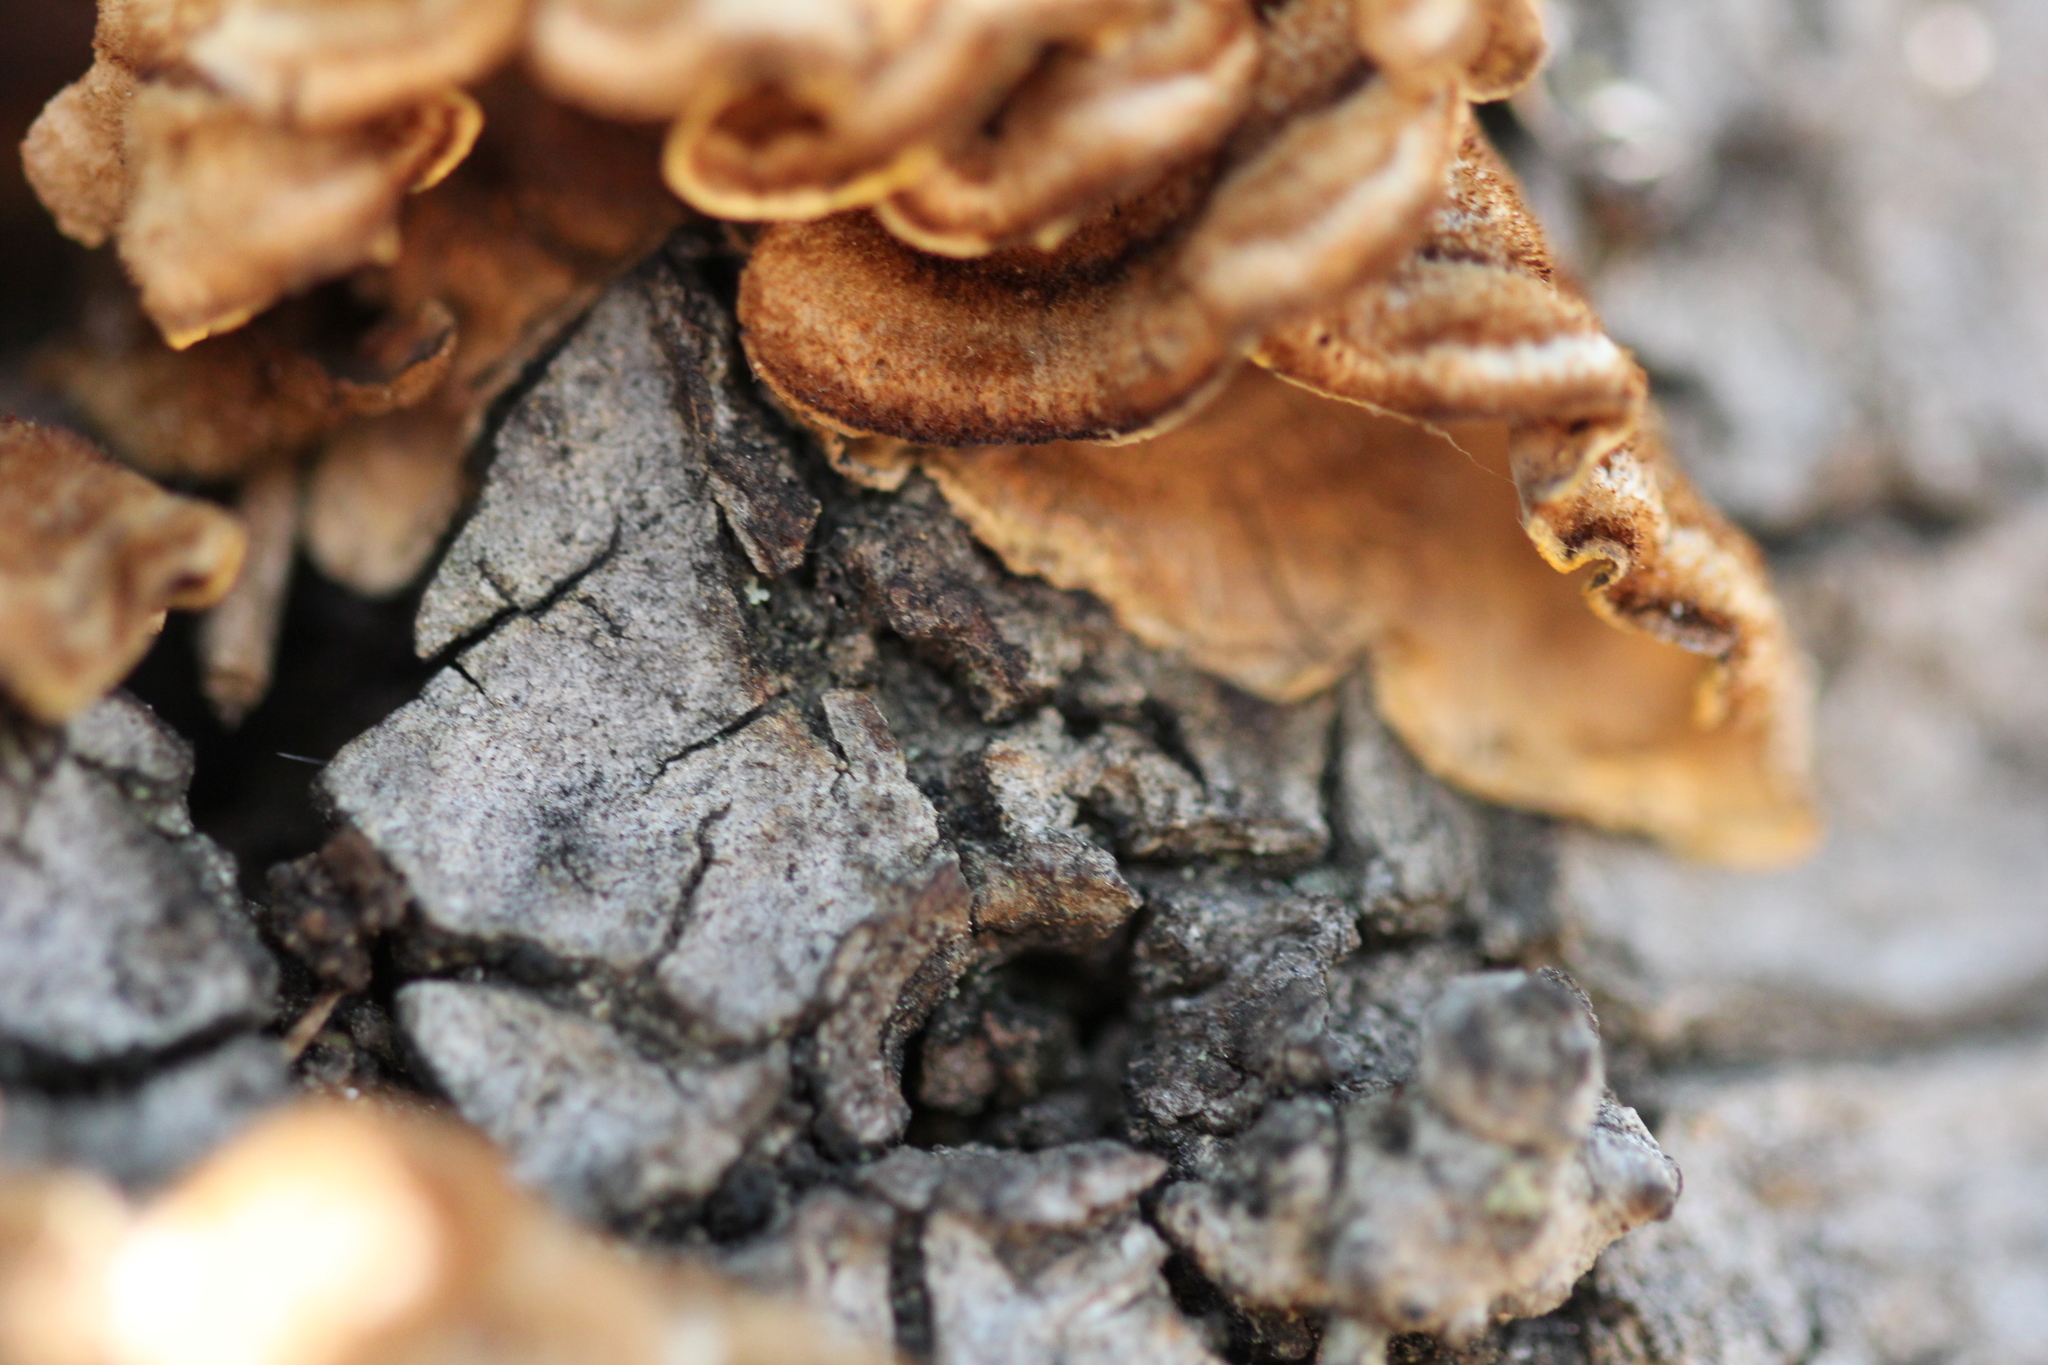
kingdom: Fungi
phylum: Basidiomycota
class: Agaricomycetes
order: Russulales
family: Stereaceae
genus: Stereum
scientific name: Stereum hirsutum
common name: Hairy curtain crust
